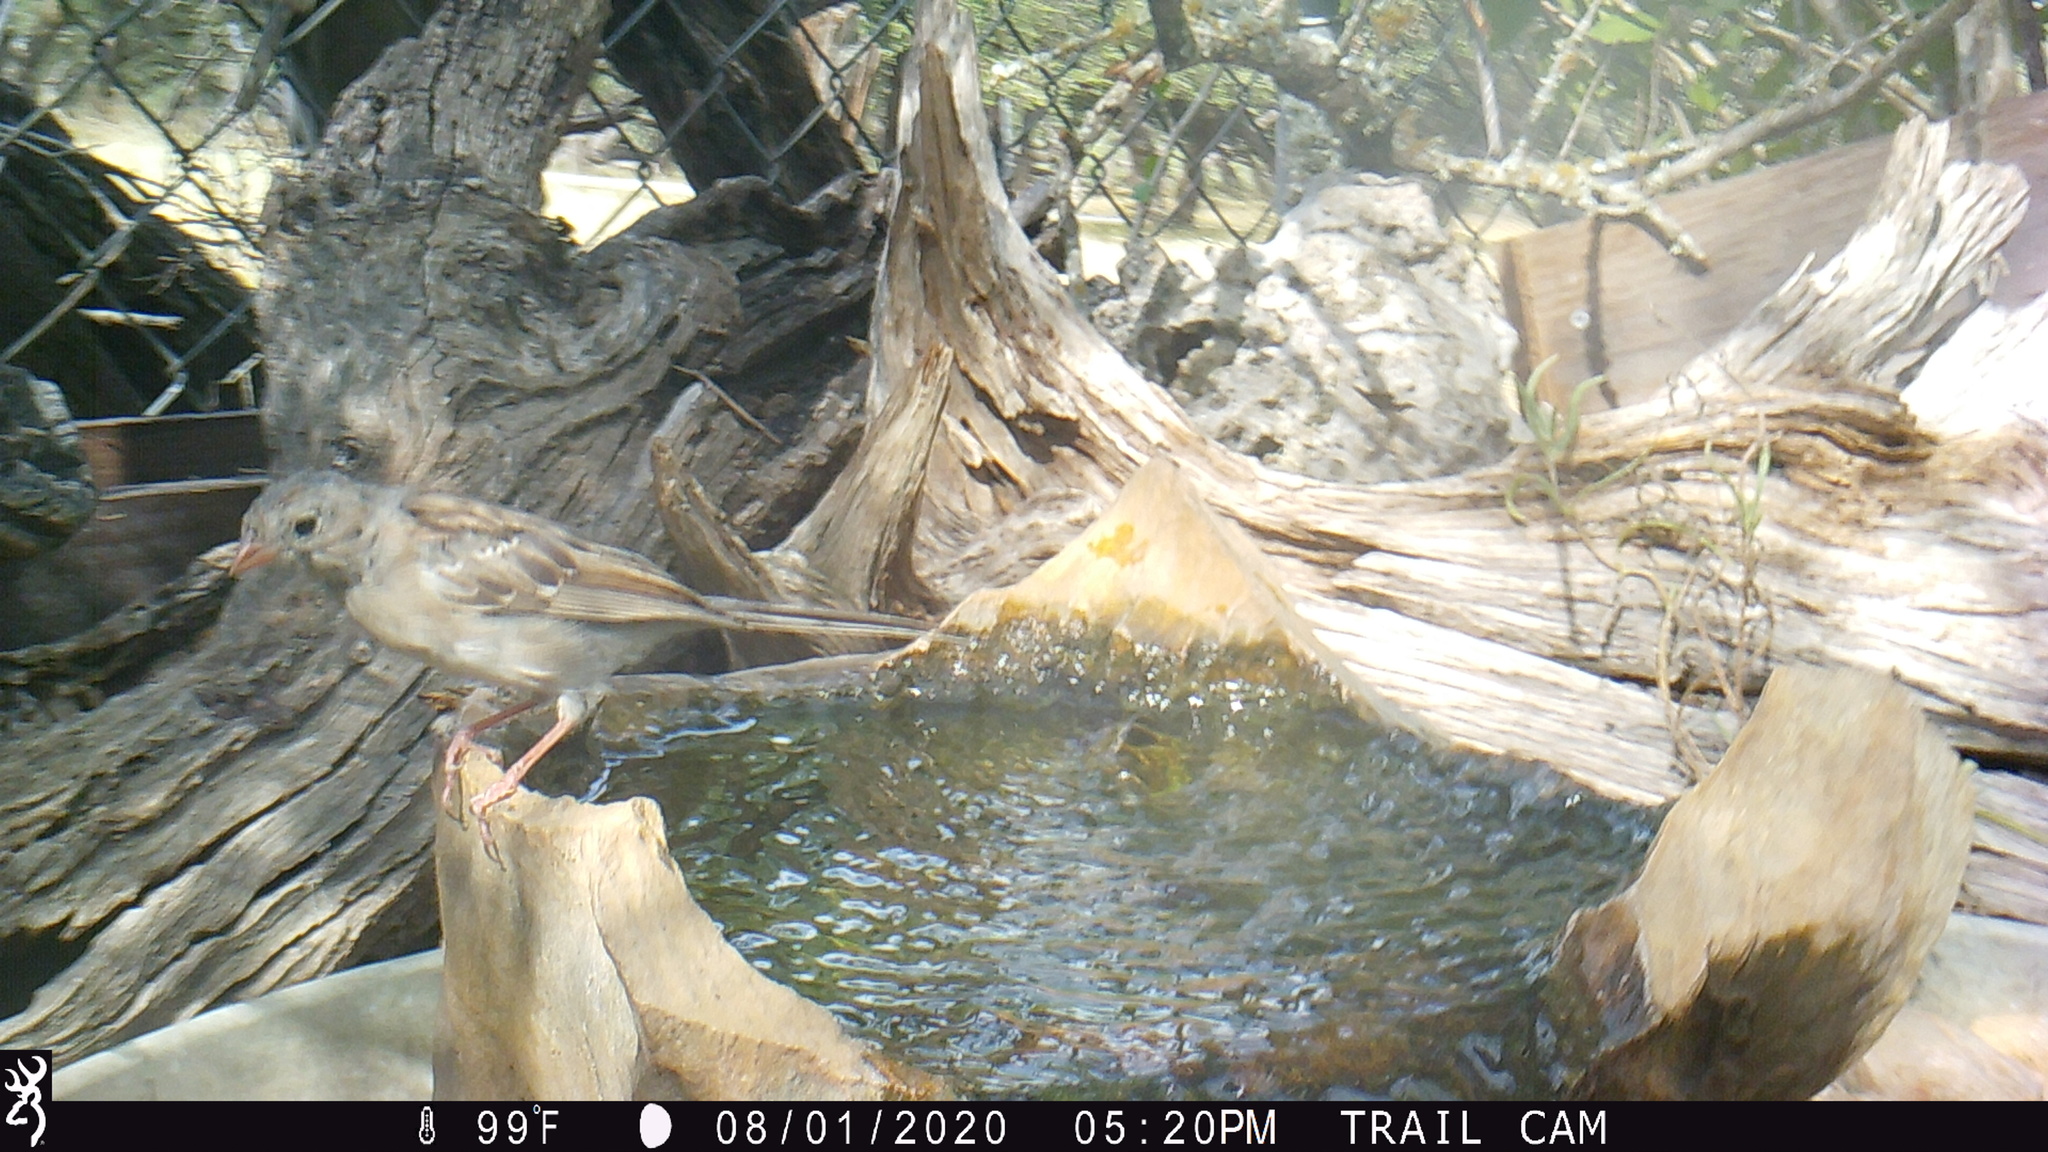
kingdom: Animalia
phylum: Chordata
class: Aves
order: Passeriformes
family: Passerellidae
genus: Spizella
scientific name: Spizella pusilla
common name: Field sparrow
